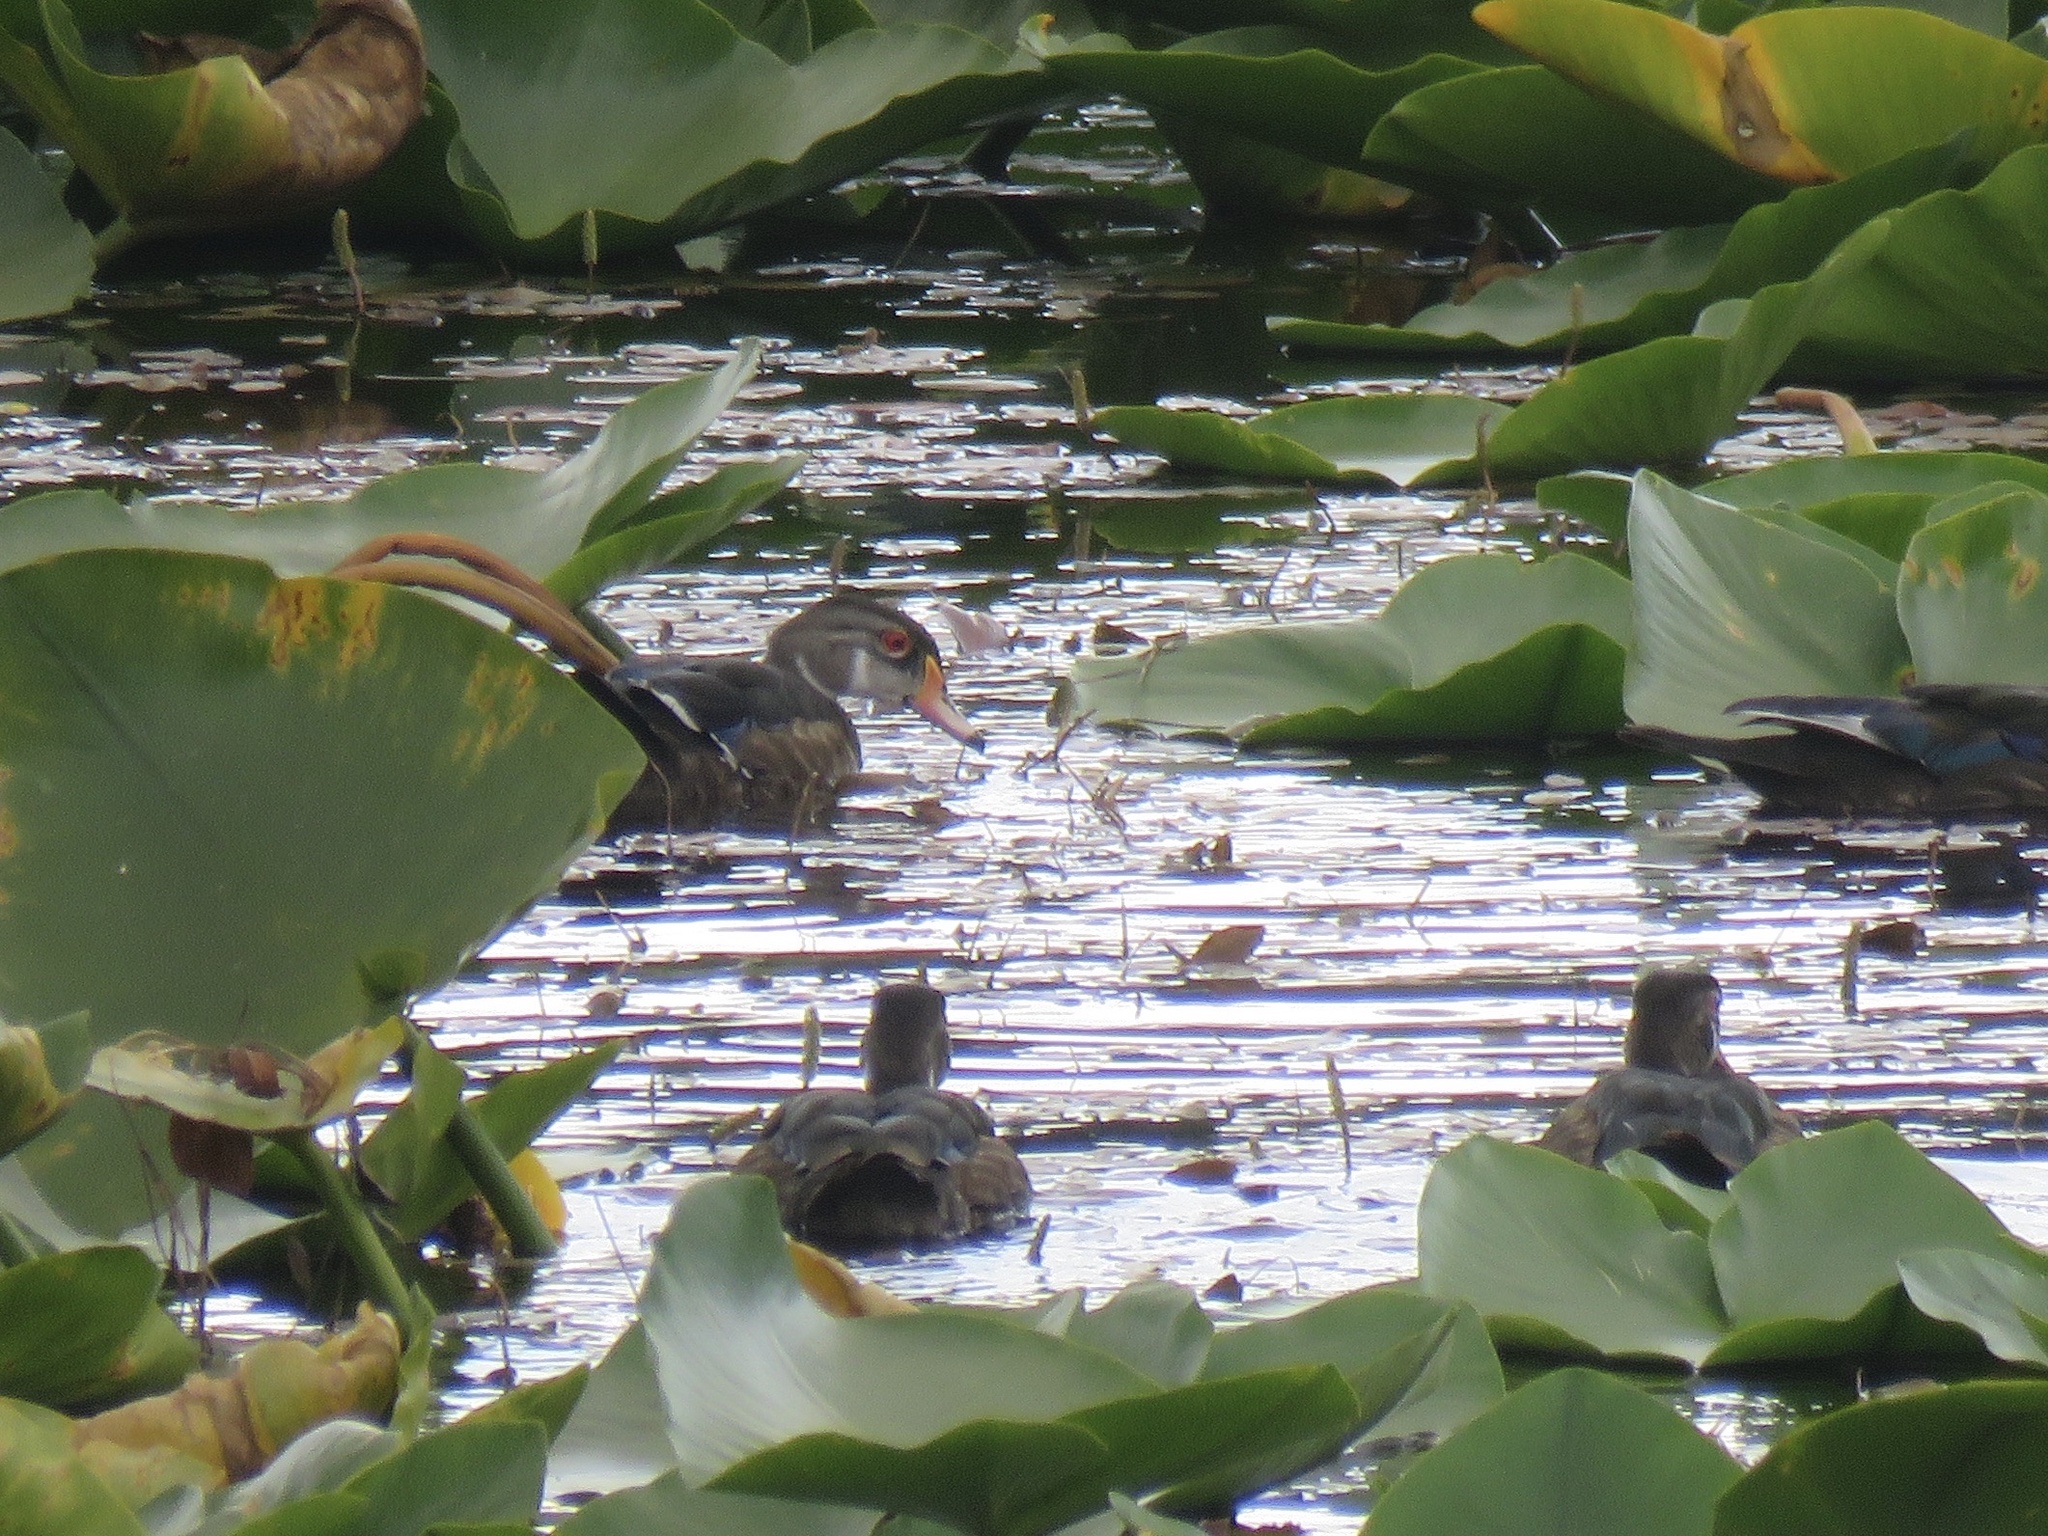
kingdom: Animalia
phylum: Chordata
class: Aves
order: Anseriformes
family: Anatidae
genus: Aix
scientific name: Aix sponsa
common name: Wood duck
